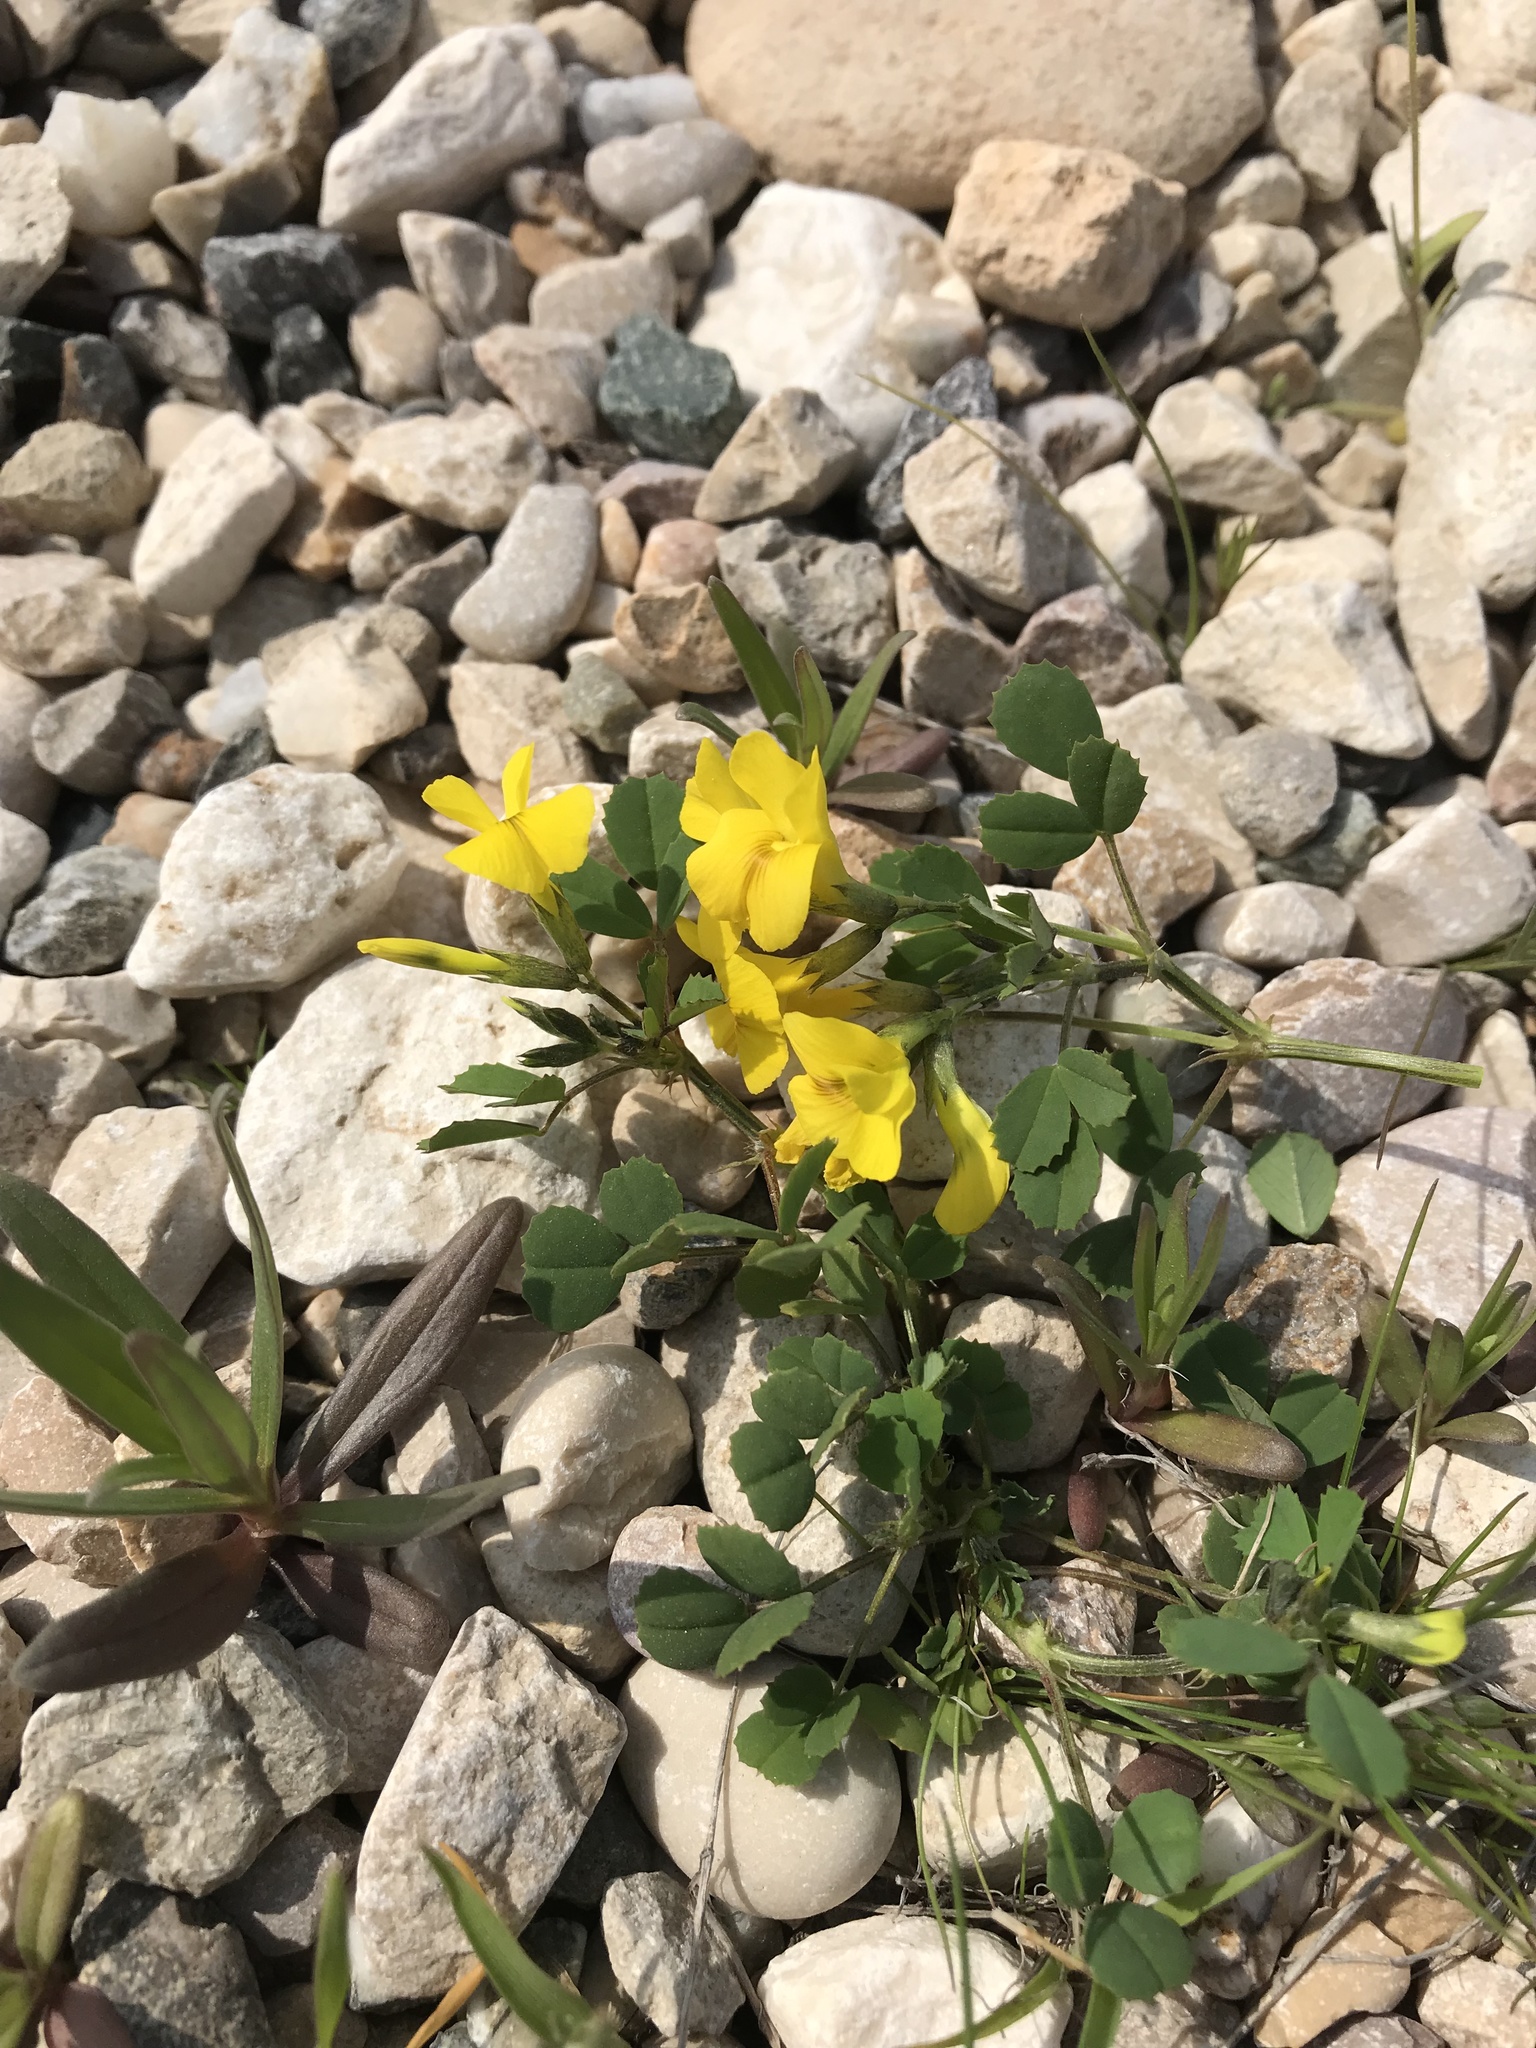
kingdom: Plantae
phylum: Tracheophyta
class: Magnoliopsida
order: Fabales
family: Fabaceae
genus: Medicago
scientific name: Medicago monantha
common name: Medick
